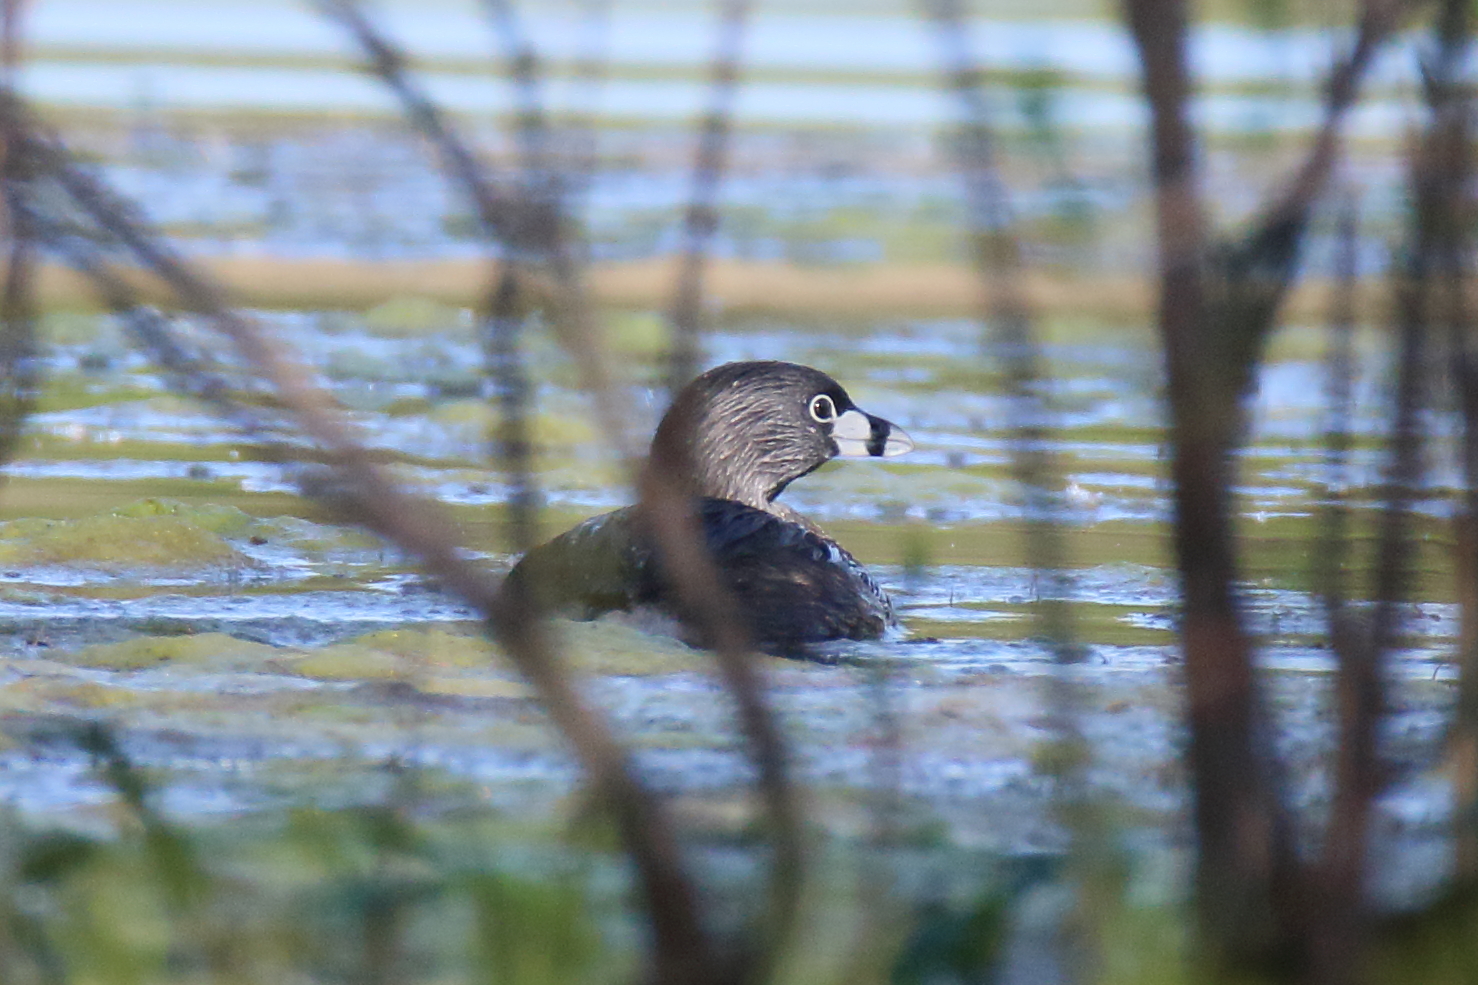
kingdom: Animalia
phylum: Chordata
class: Aves
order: Podicipediformes
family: Podicipedidae
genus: Podilymbus
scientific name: Podilymbus podiceps
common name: Pied-billed grebe
